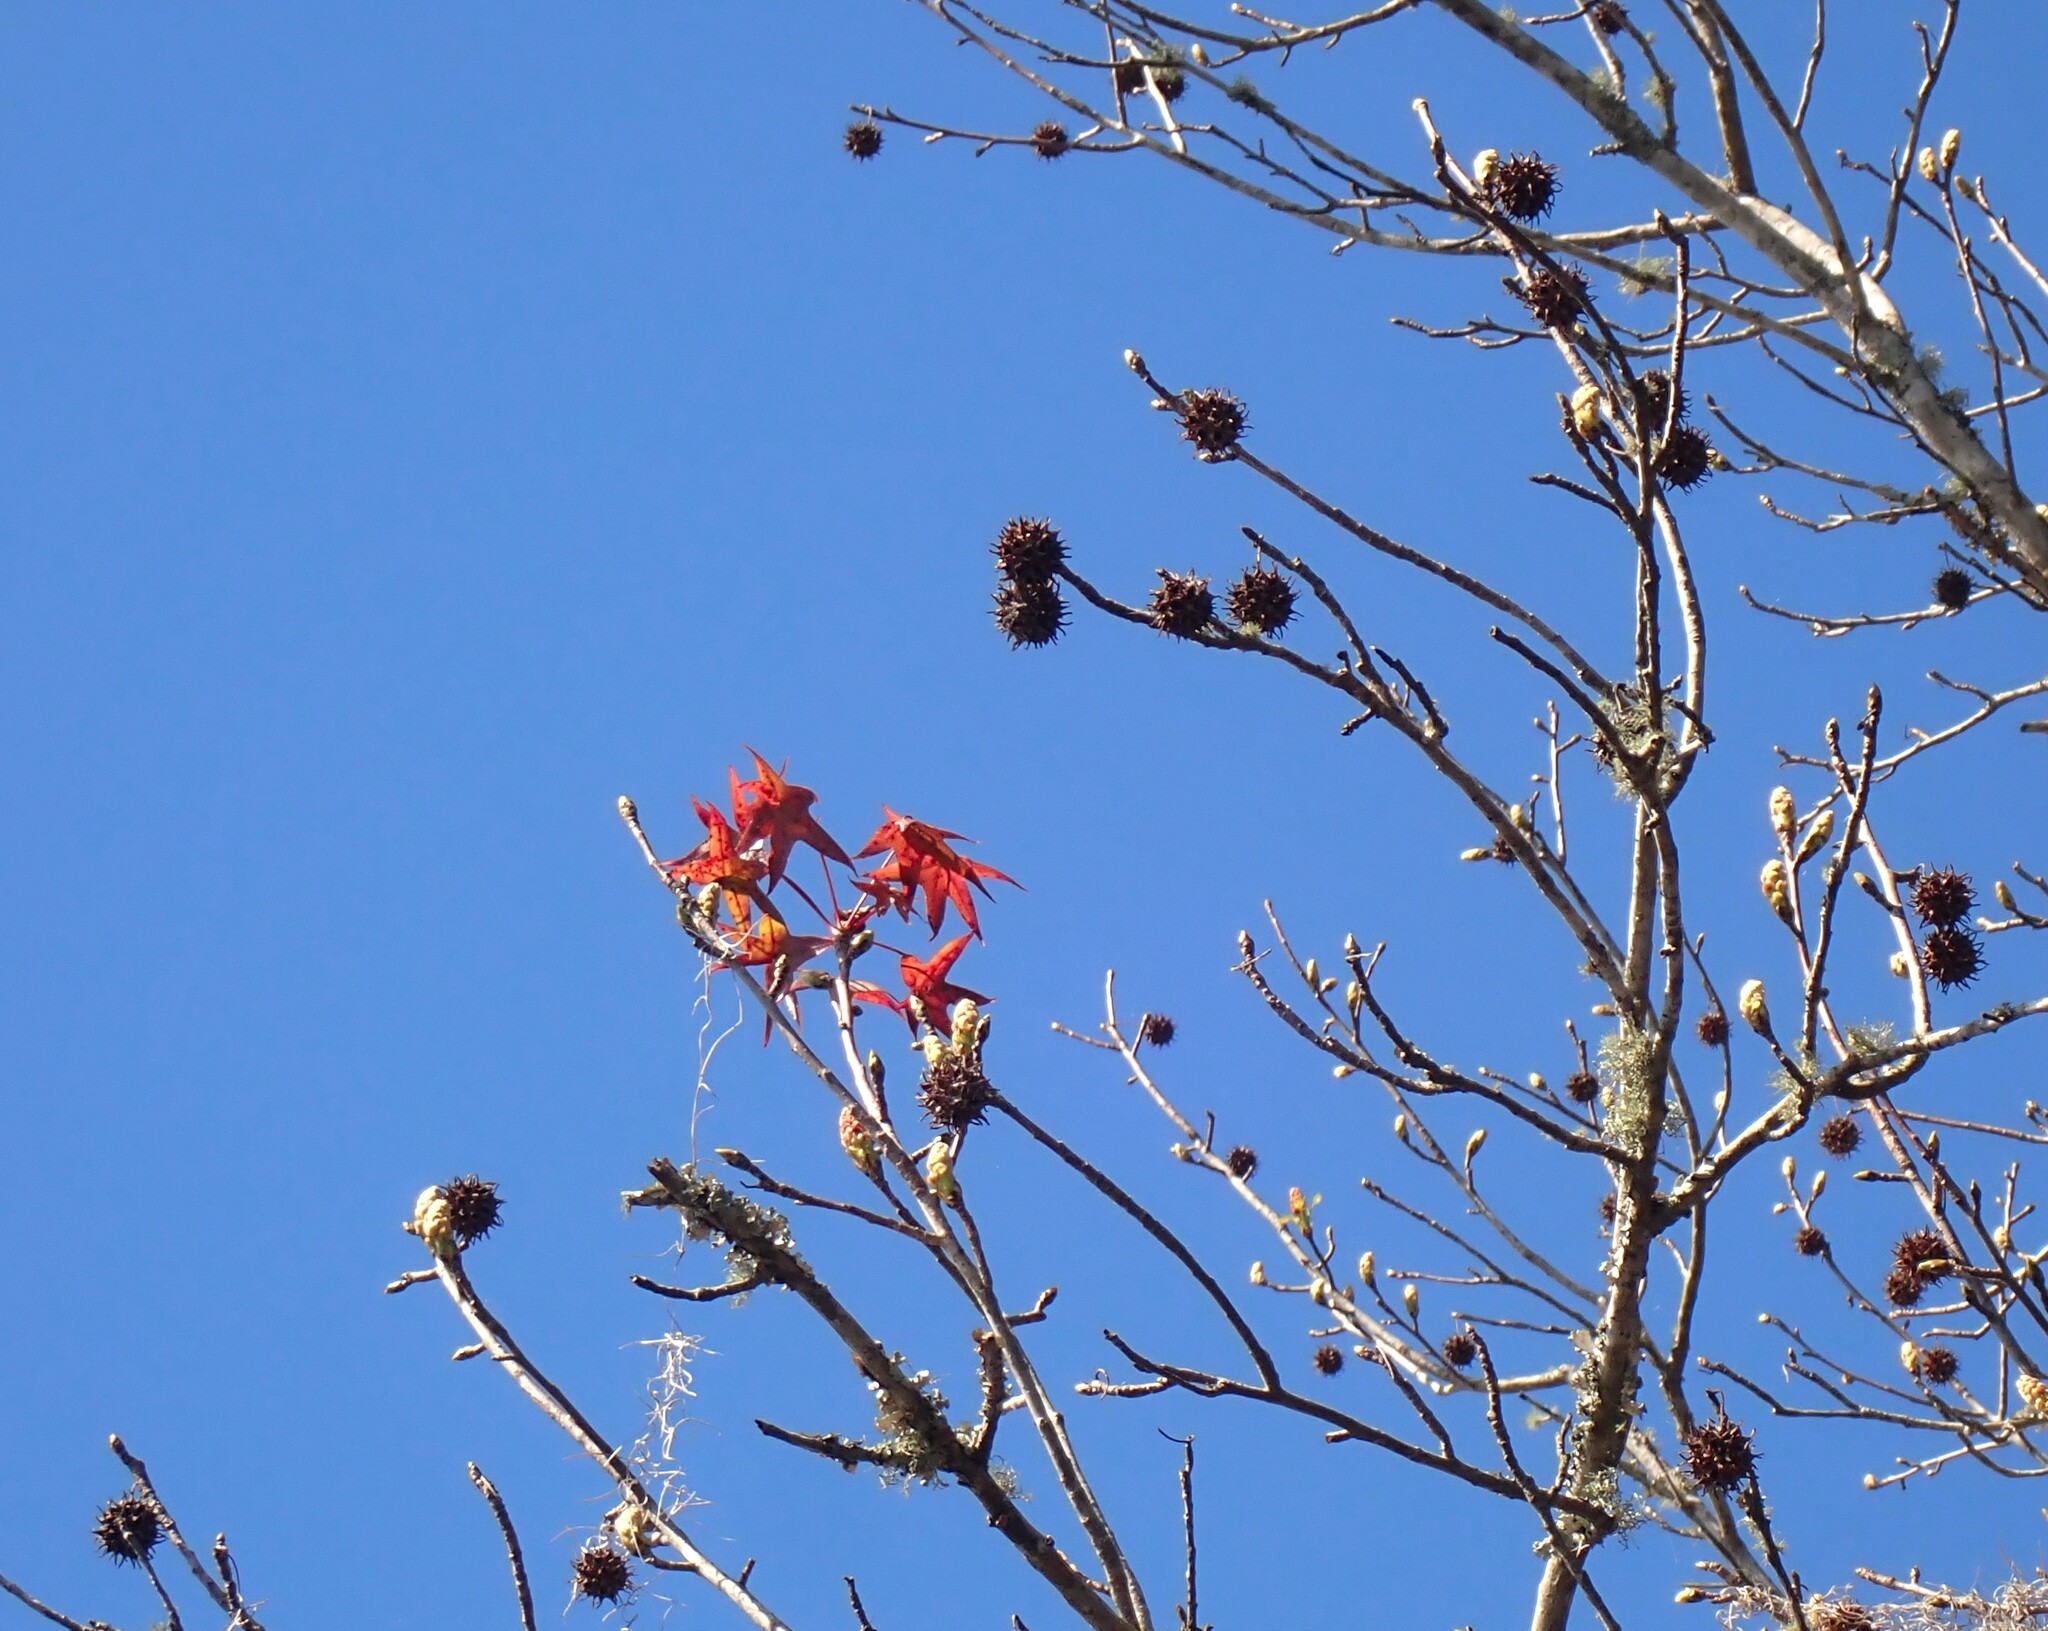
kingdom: Plantae
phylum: Tracheophyta
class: Magnoliopsida
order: Saxifragales
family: Altingiaceae
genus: Liquidambar
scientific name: Liquidambar styraciflua
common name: Sweet gum
